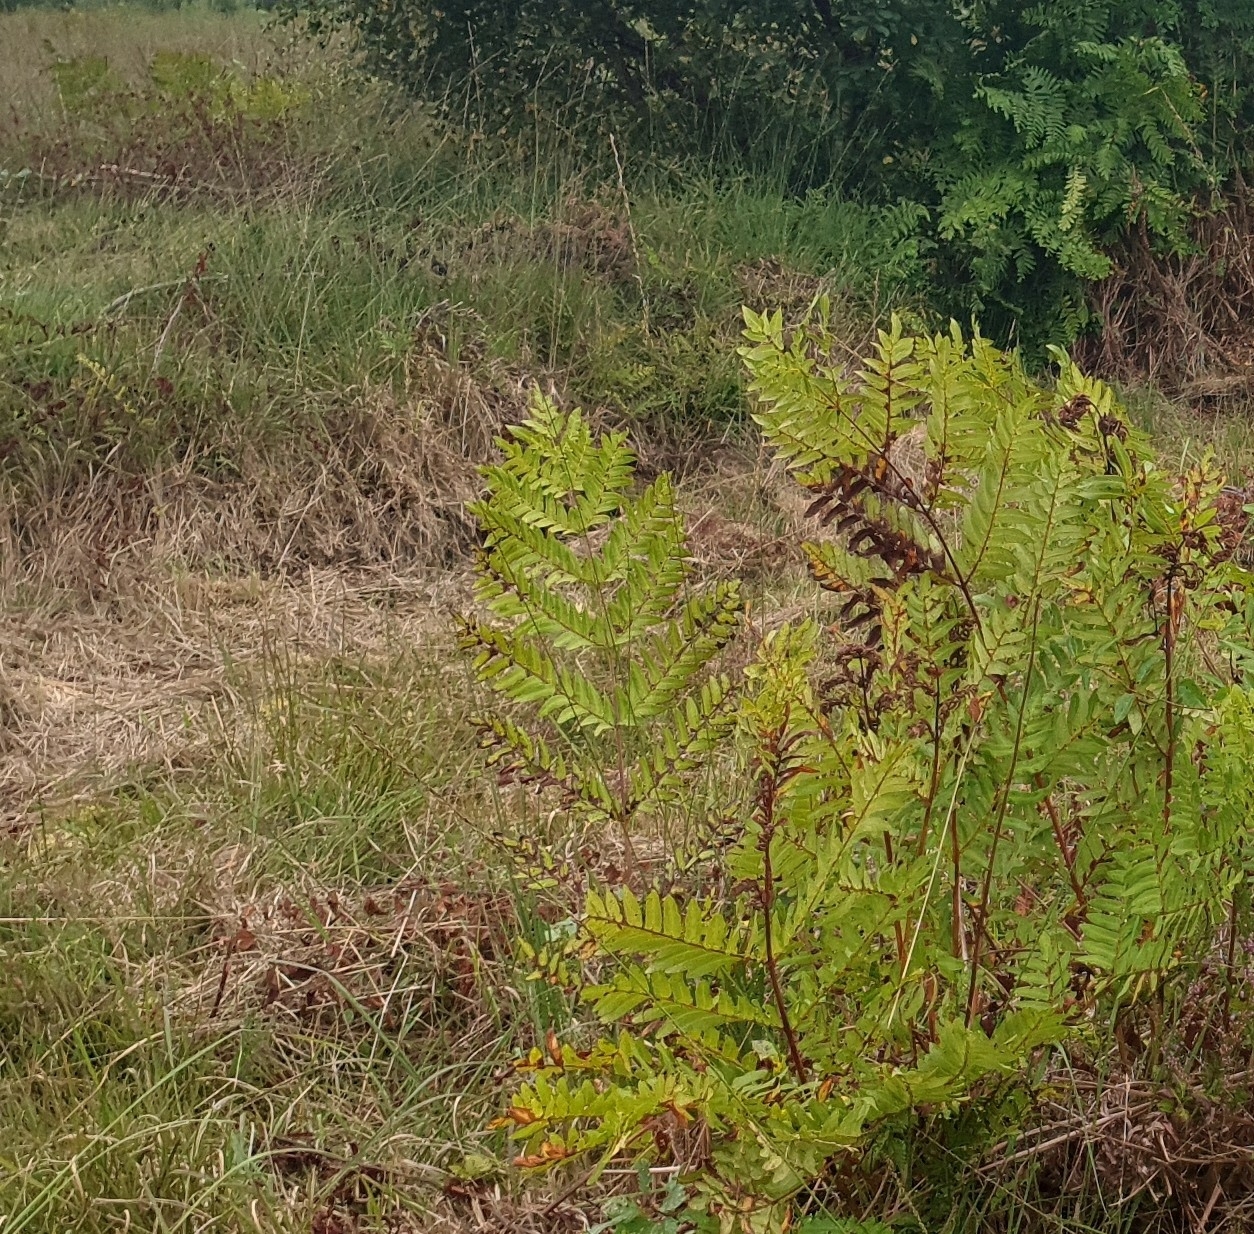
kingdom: Plantae
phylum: Tracheophyta
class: Polypodiopsida
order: Osmundales
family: Osmundaceae
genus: Osmunda
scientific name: Osmunda regalis
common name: Royal fern
